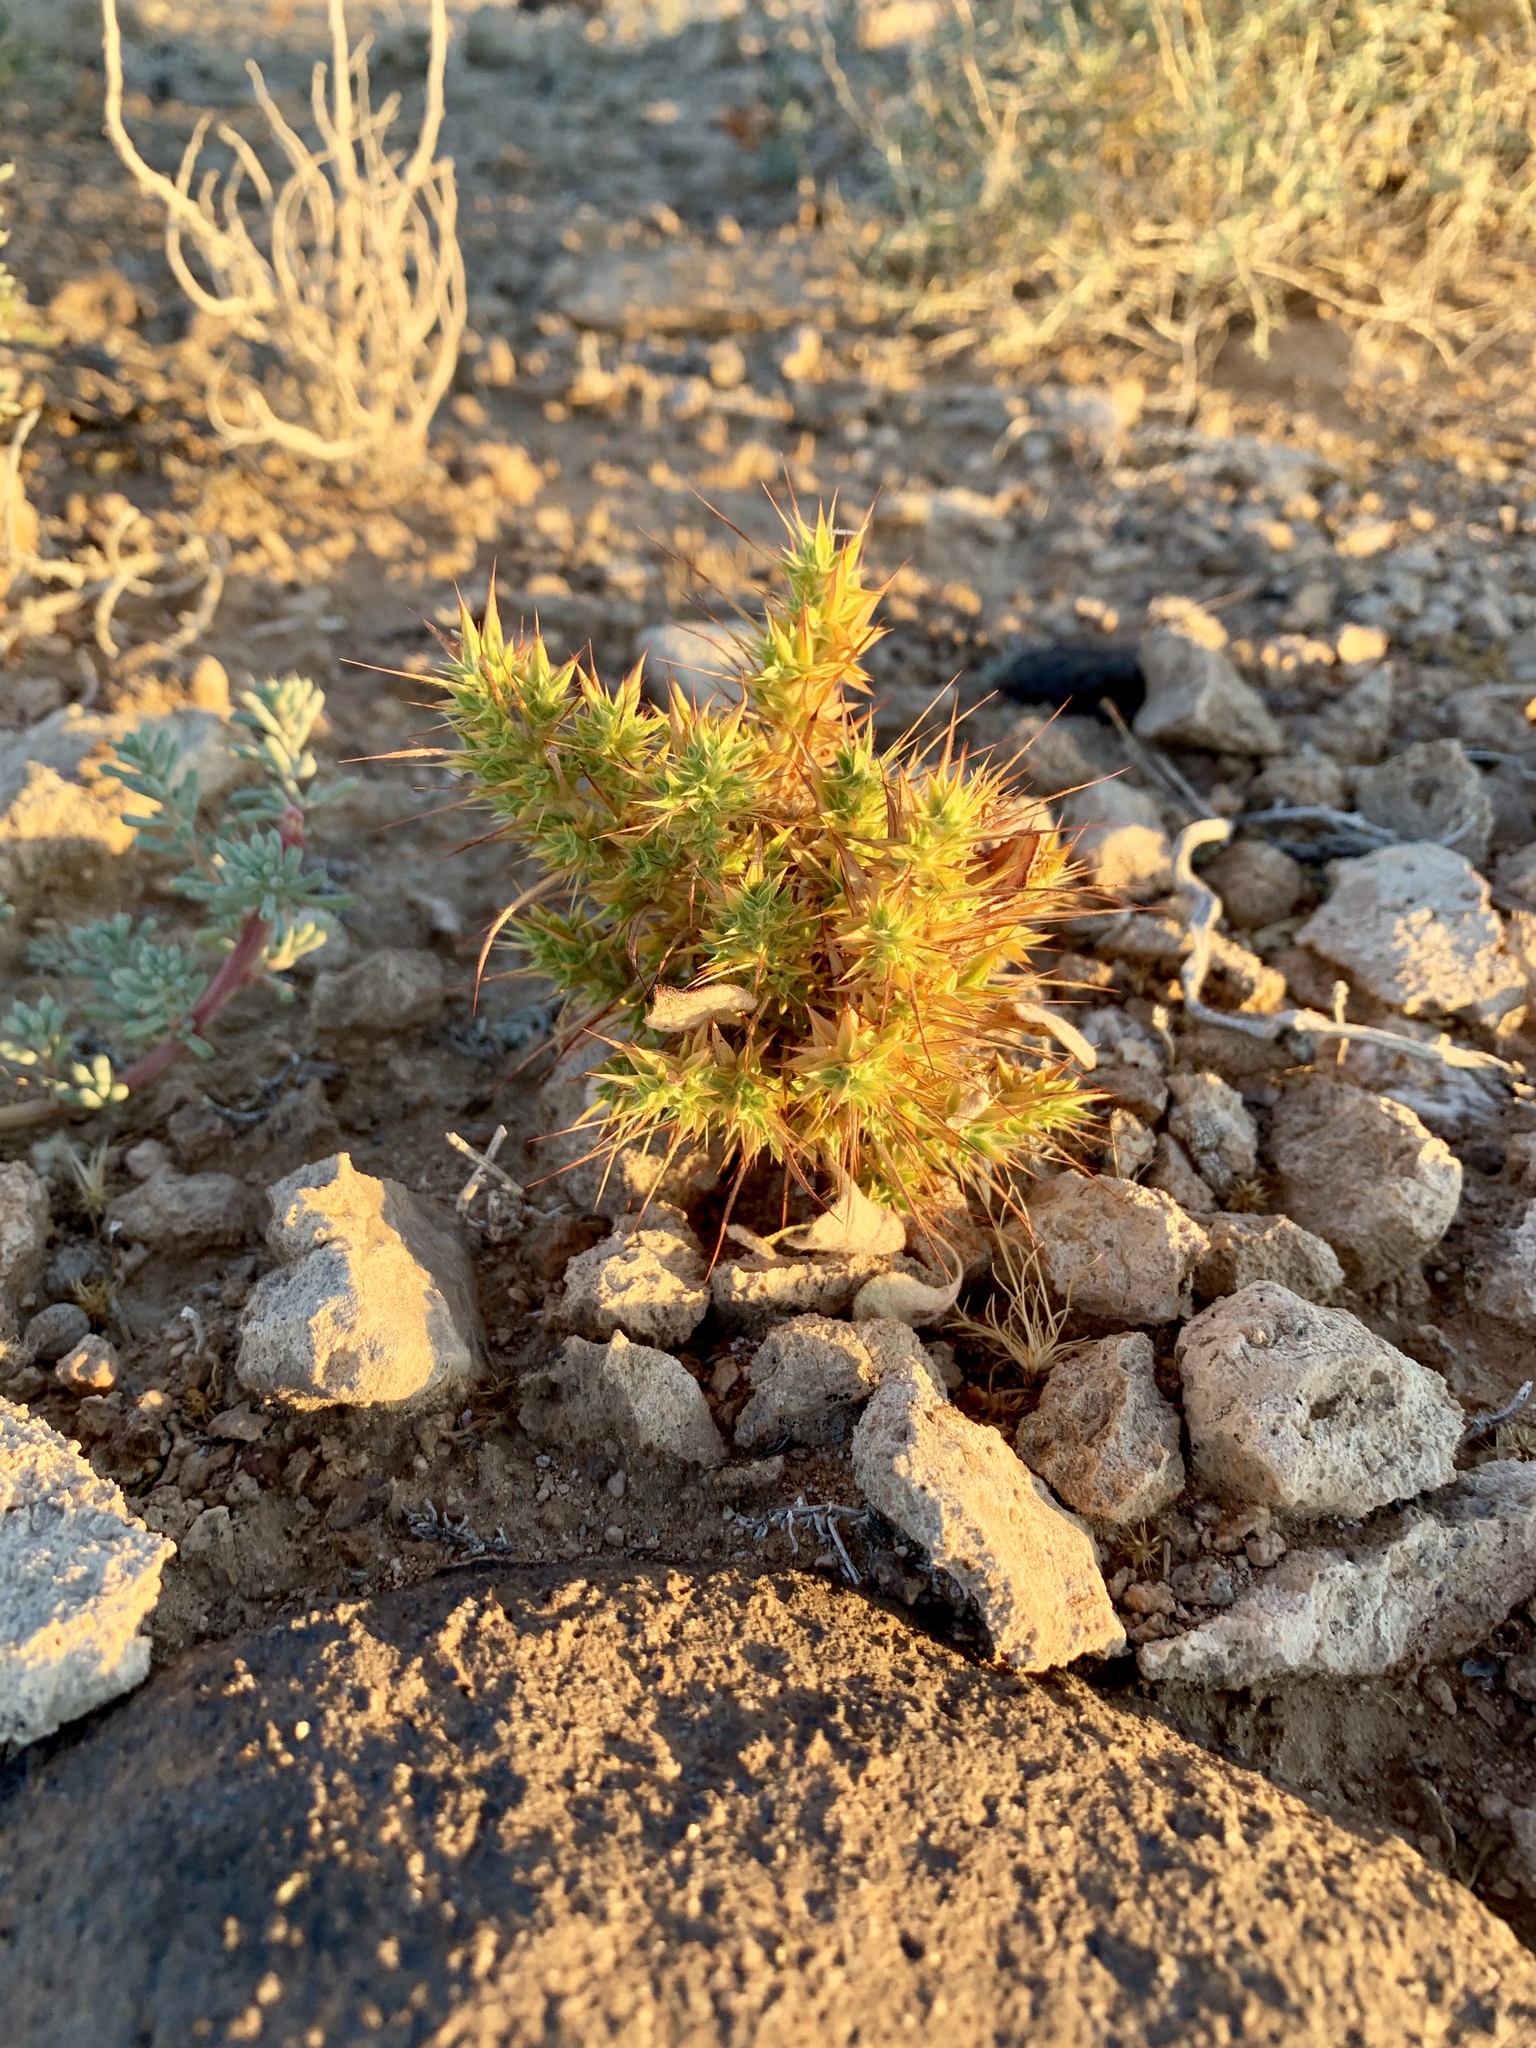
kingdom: Plantae
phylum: Tracheophyta
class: Magnoliopsida
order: Caryophyllales
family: Polygonaceae
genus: Chorizanthe
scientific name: Chorizanthe rigida
